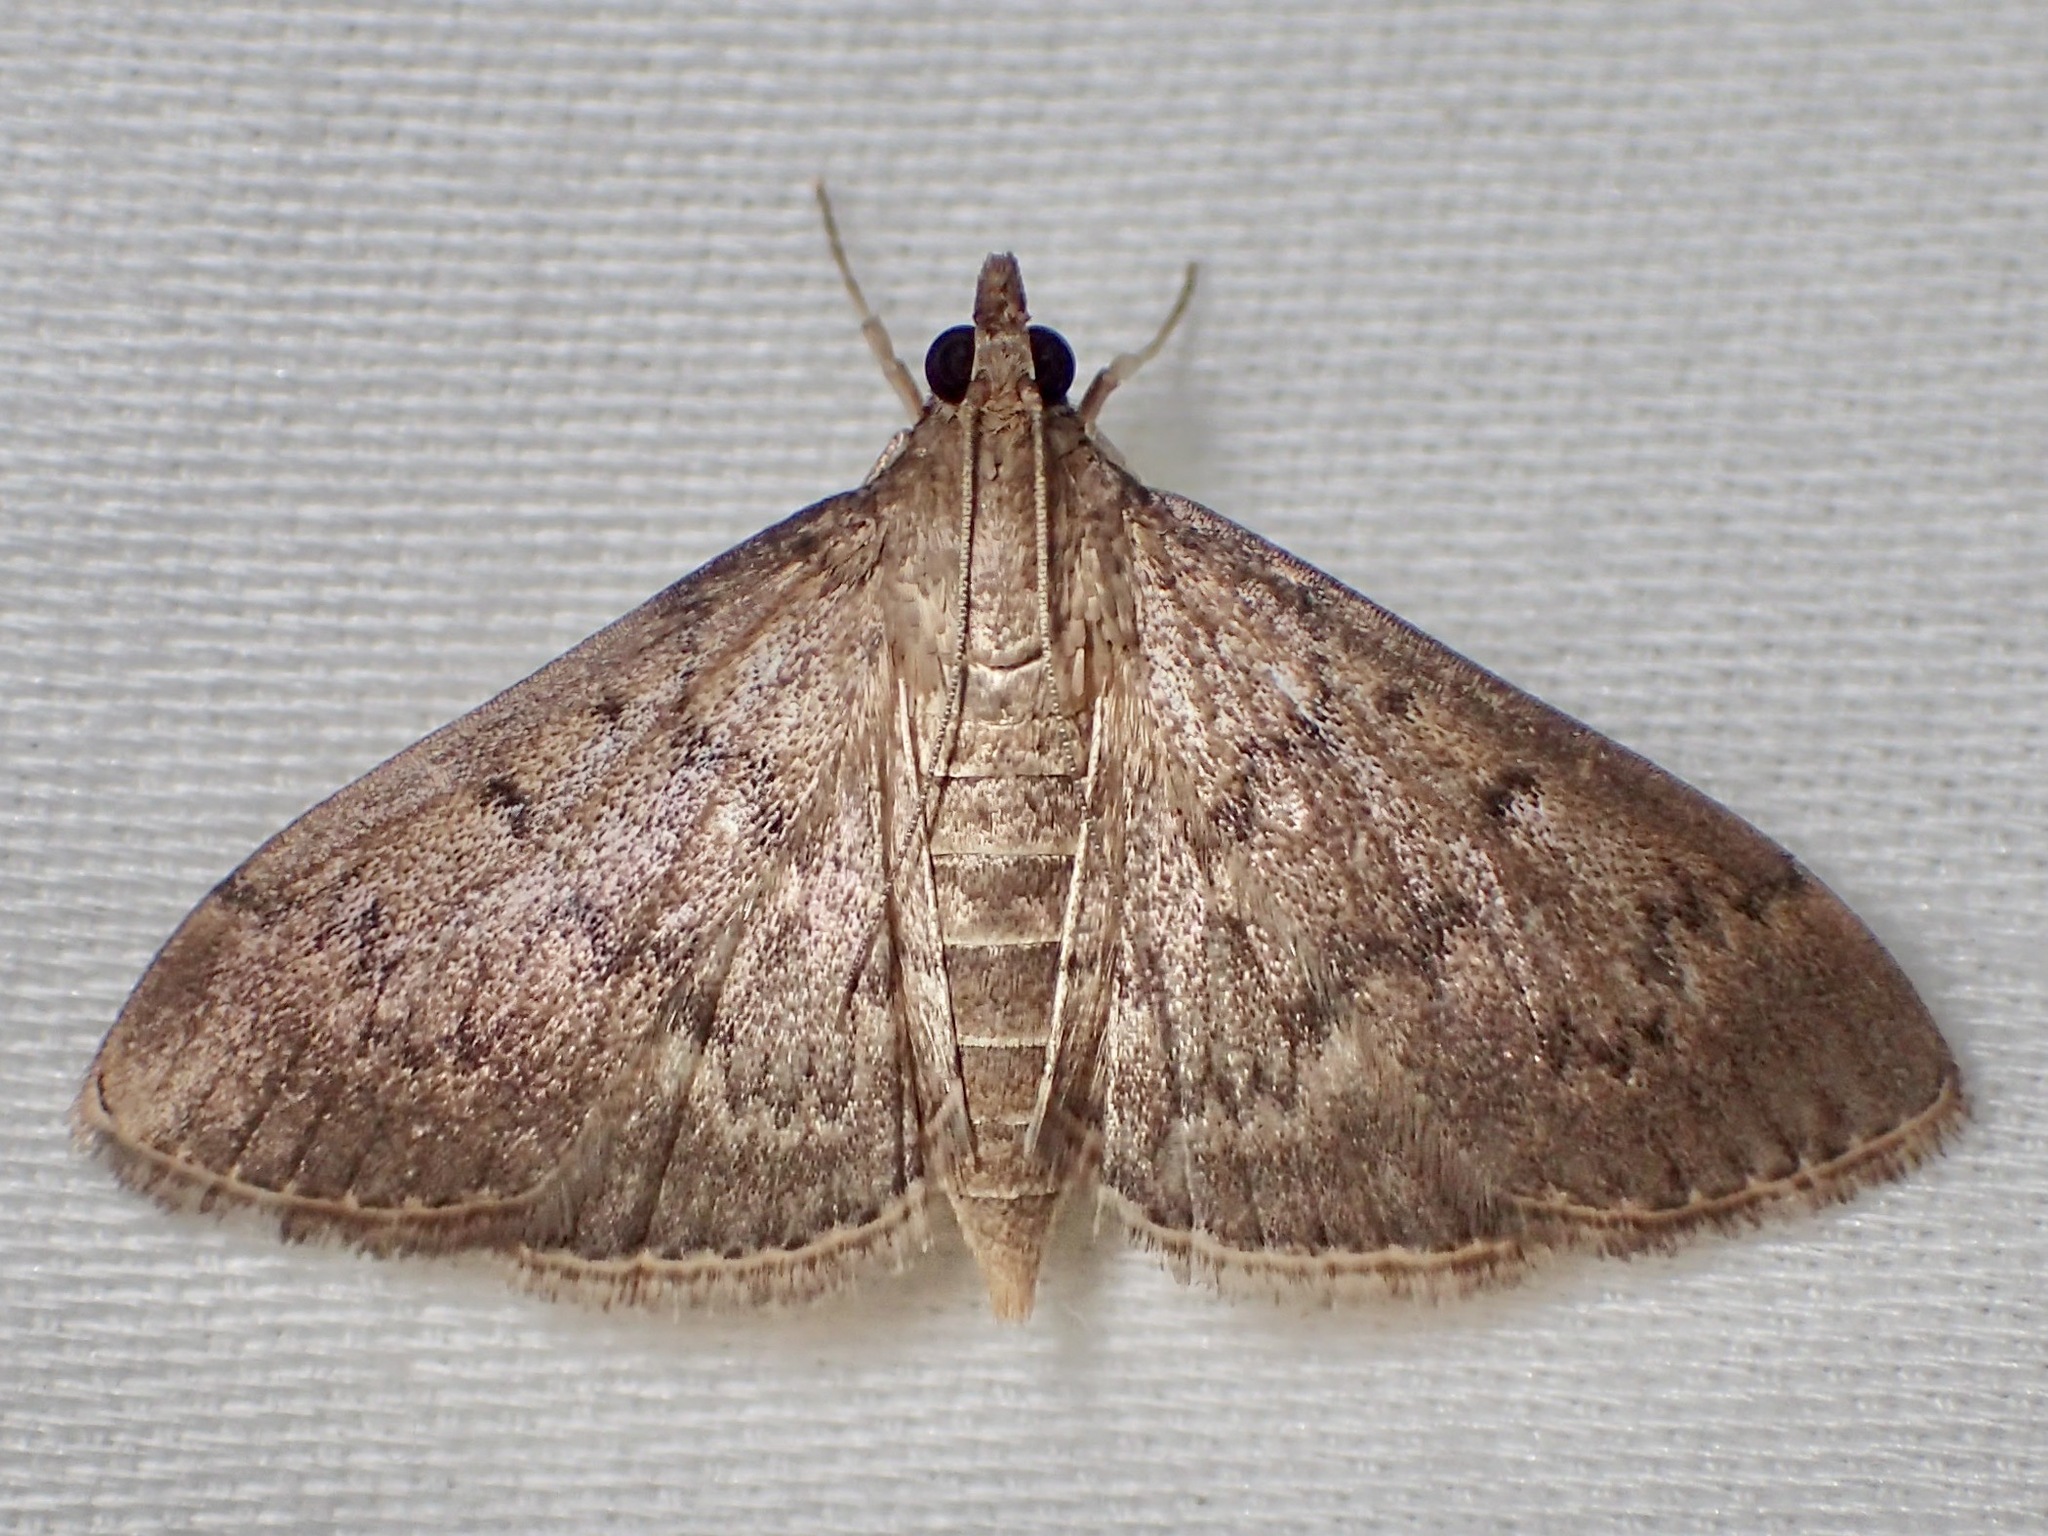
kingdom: Animalia
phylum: Arthropoda
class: Insecta
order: Lepidoptera
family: Crambidae
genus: Herpetogramma
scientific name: Herpetogramma licarsisalis
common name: Grass webworm
